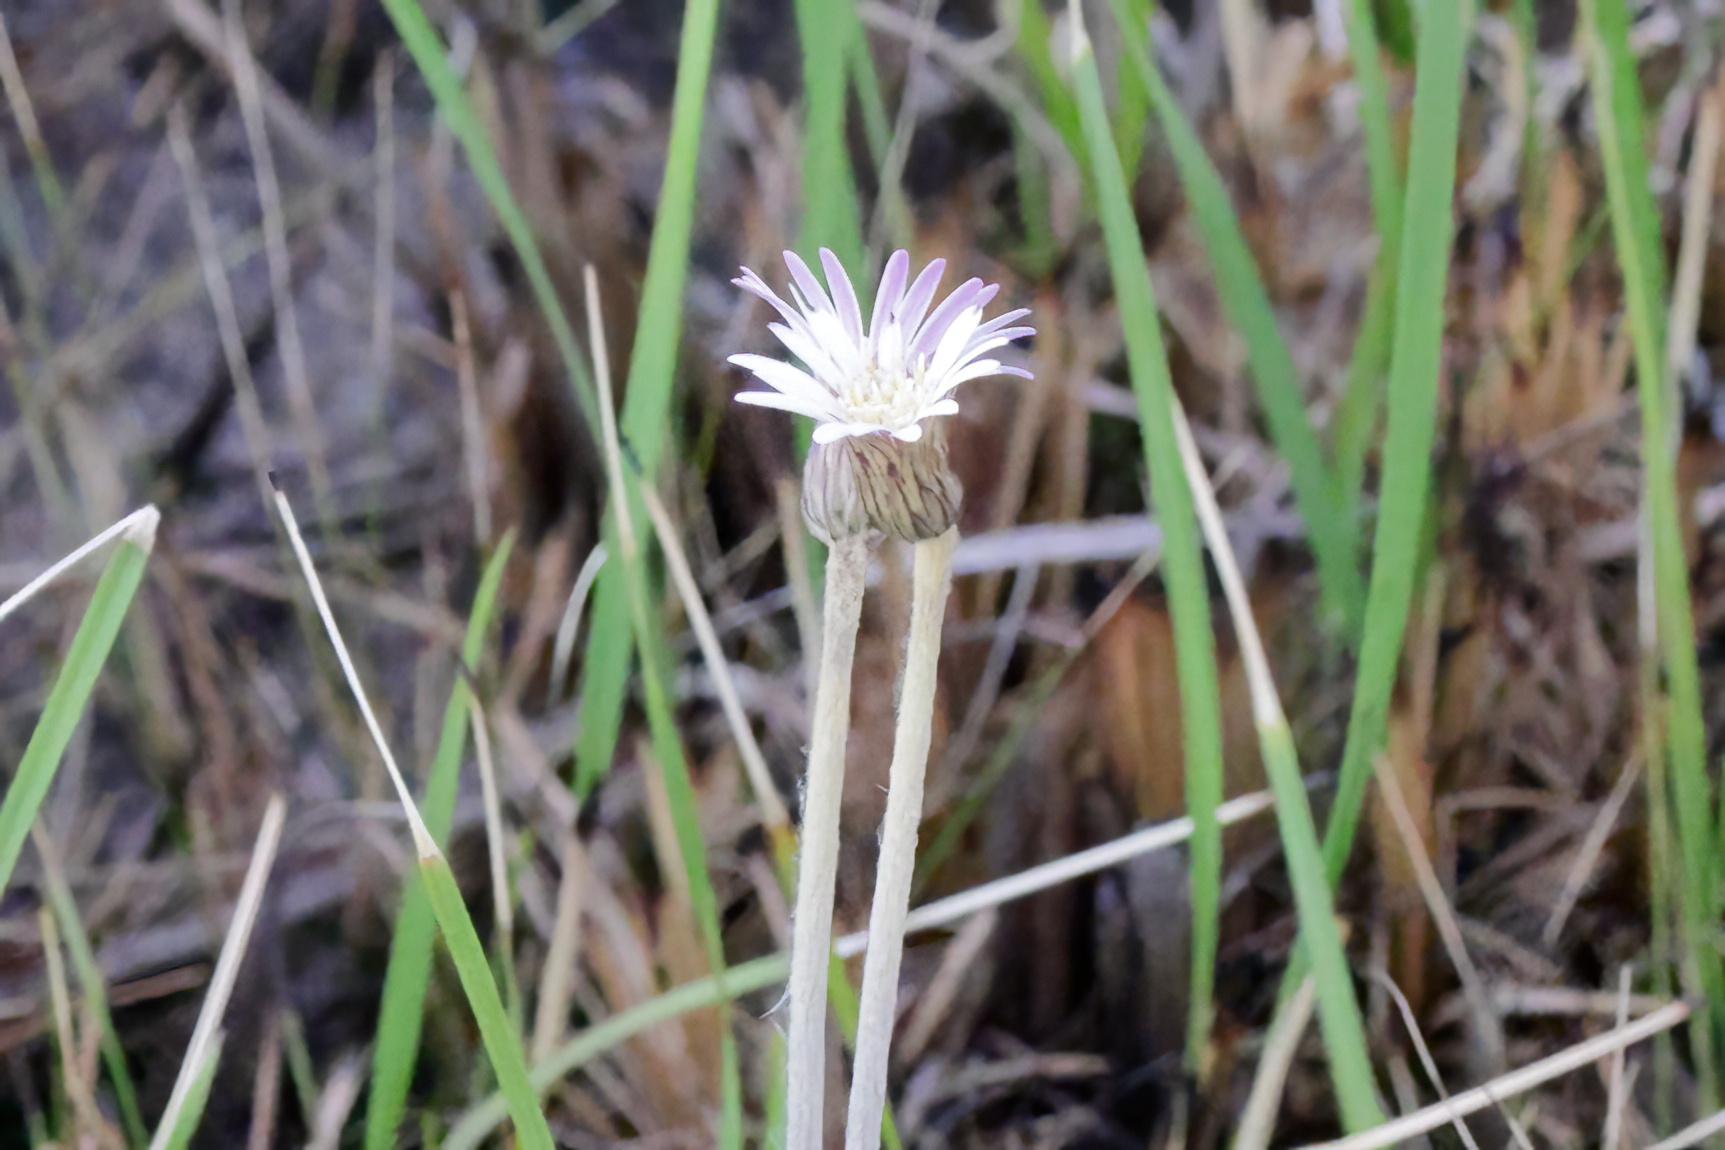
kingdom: Plantae
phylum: Tracheophyta
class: Magnoliopsida
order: Asterales
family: Asteraceae
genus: Chaptalia
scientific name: Chaptalia tomentosa
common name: Woolly sunbonnet
